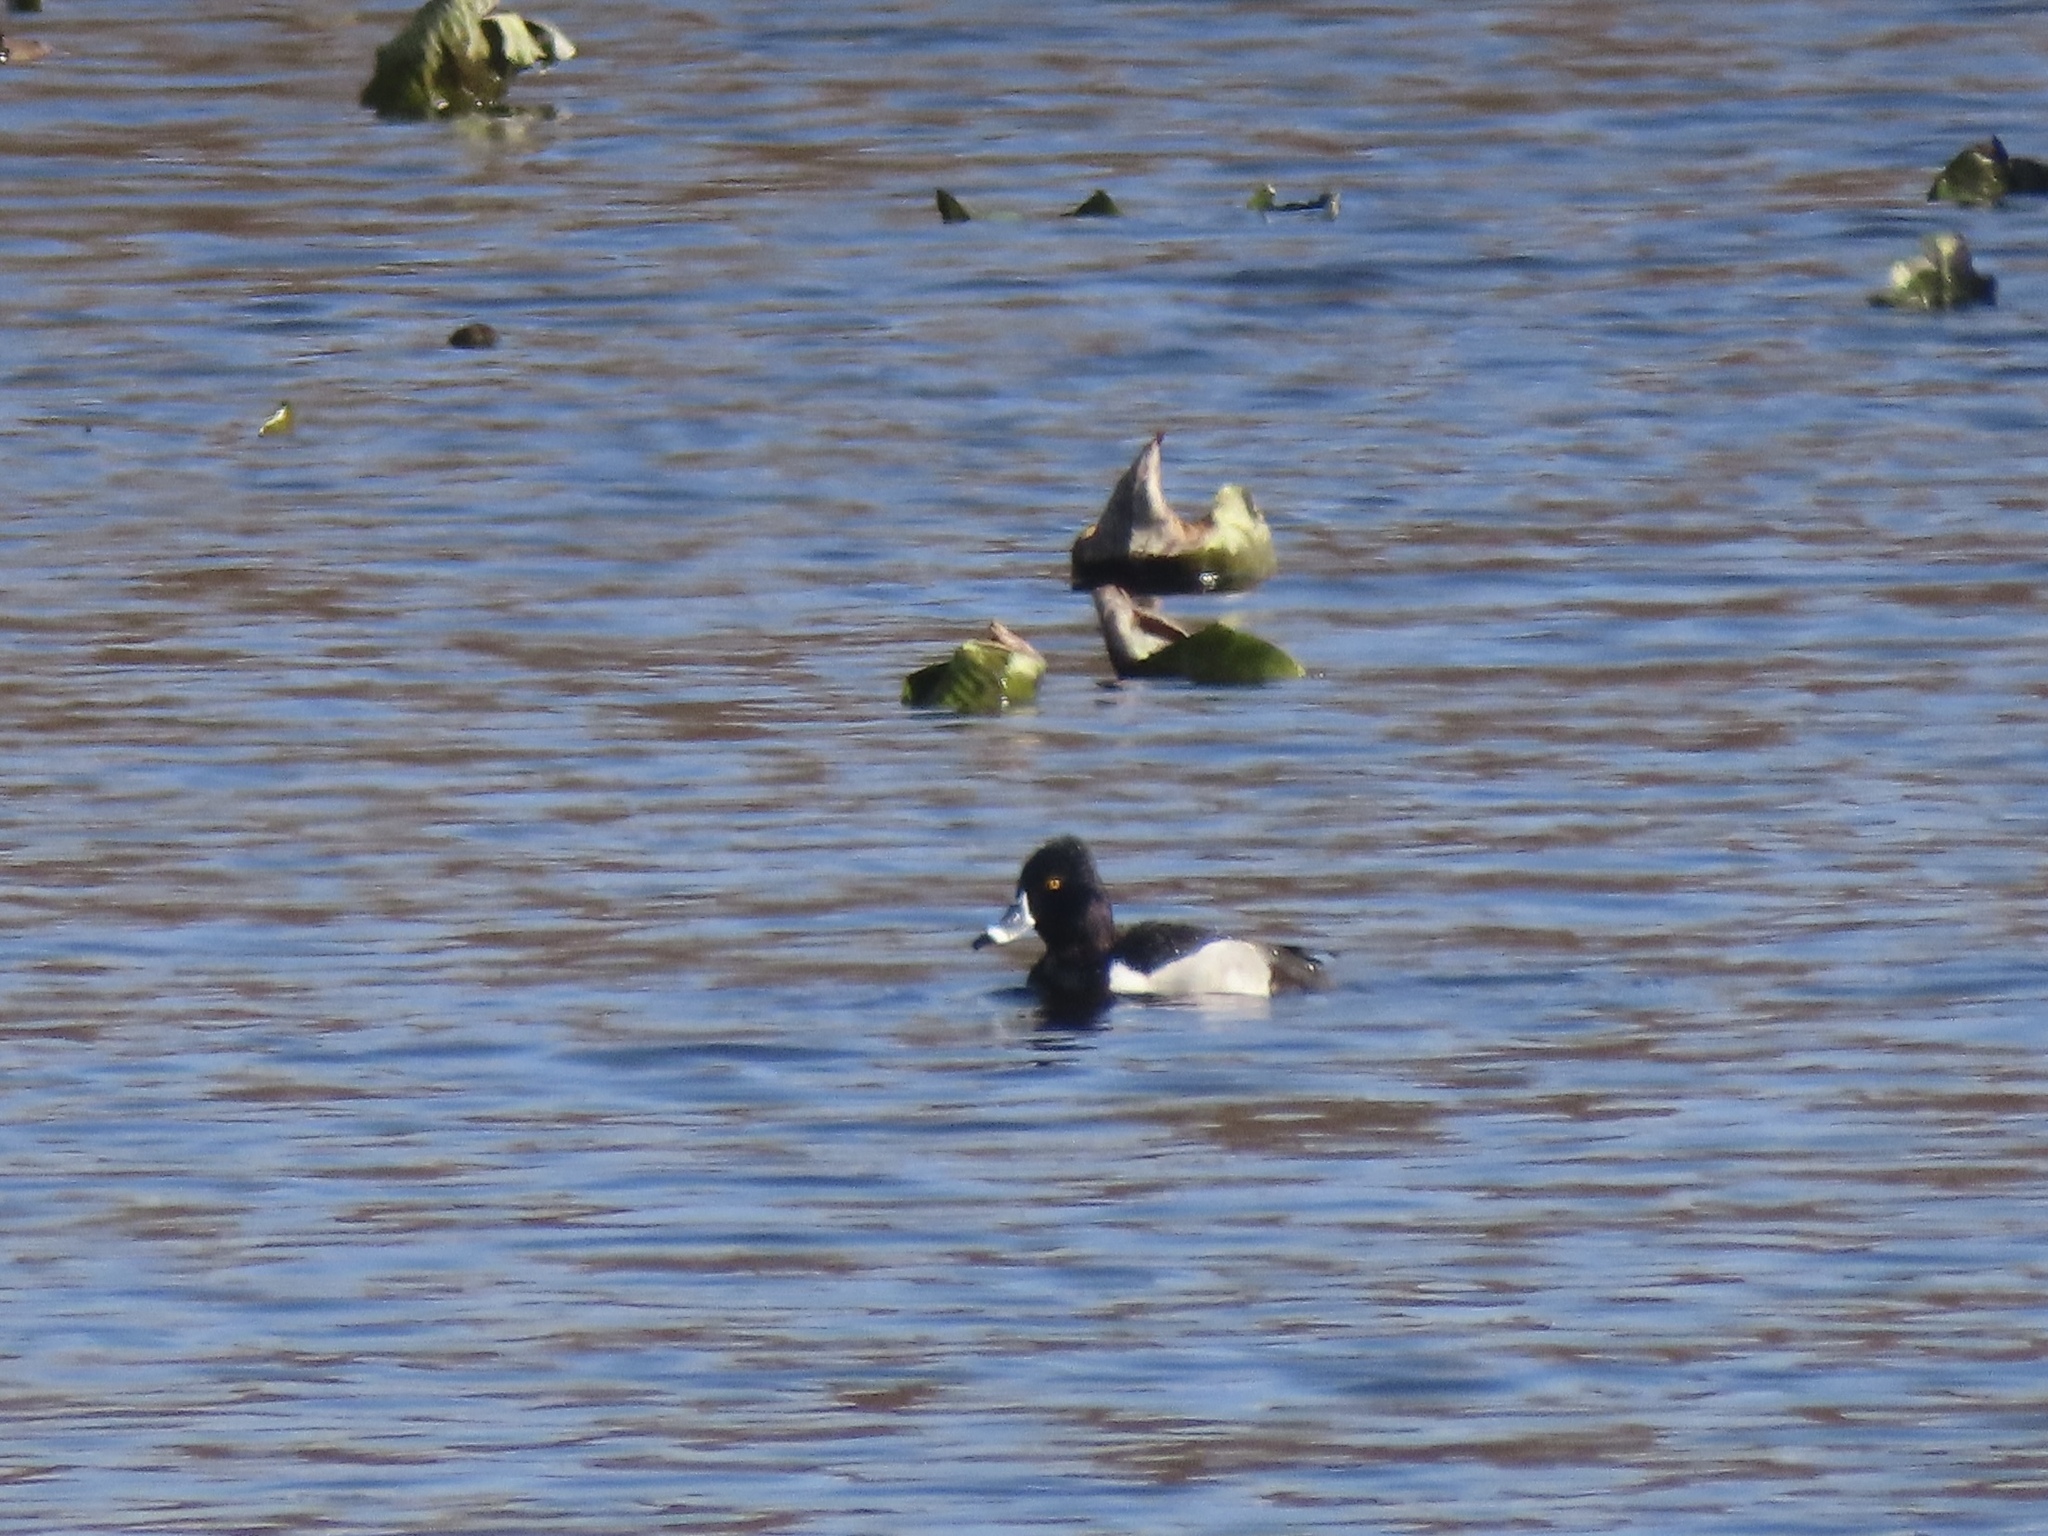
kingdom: Animalia
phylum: Chordata
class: Aves
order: Anseriformes
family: Anatidae
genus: Aythya
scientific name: Aythya collaris
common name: Ring-necked duck
